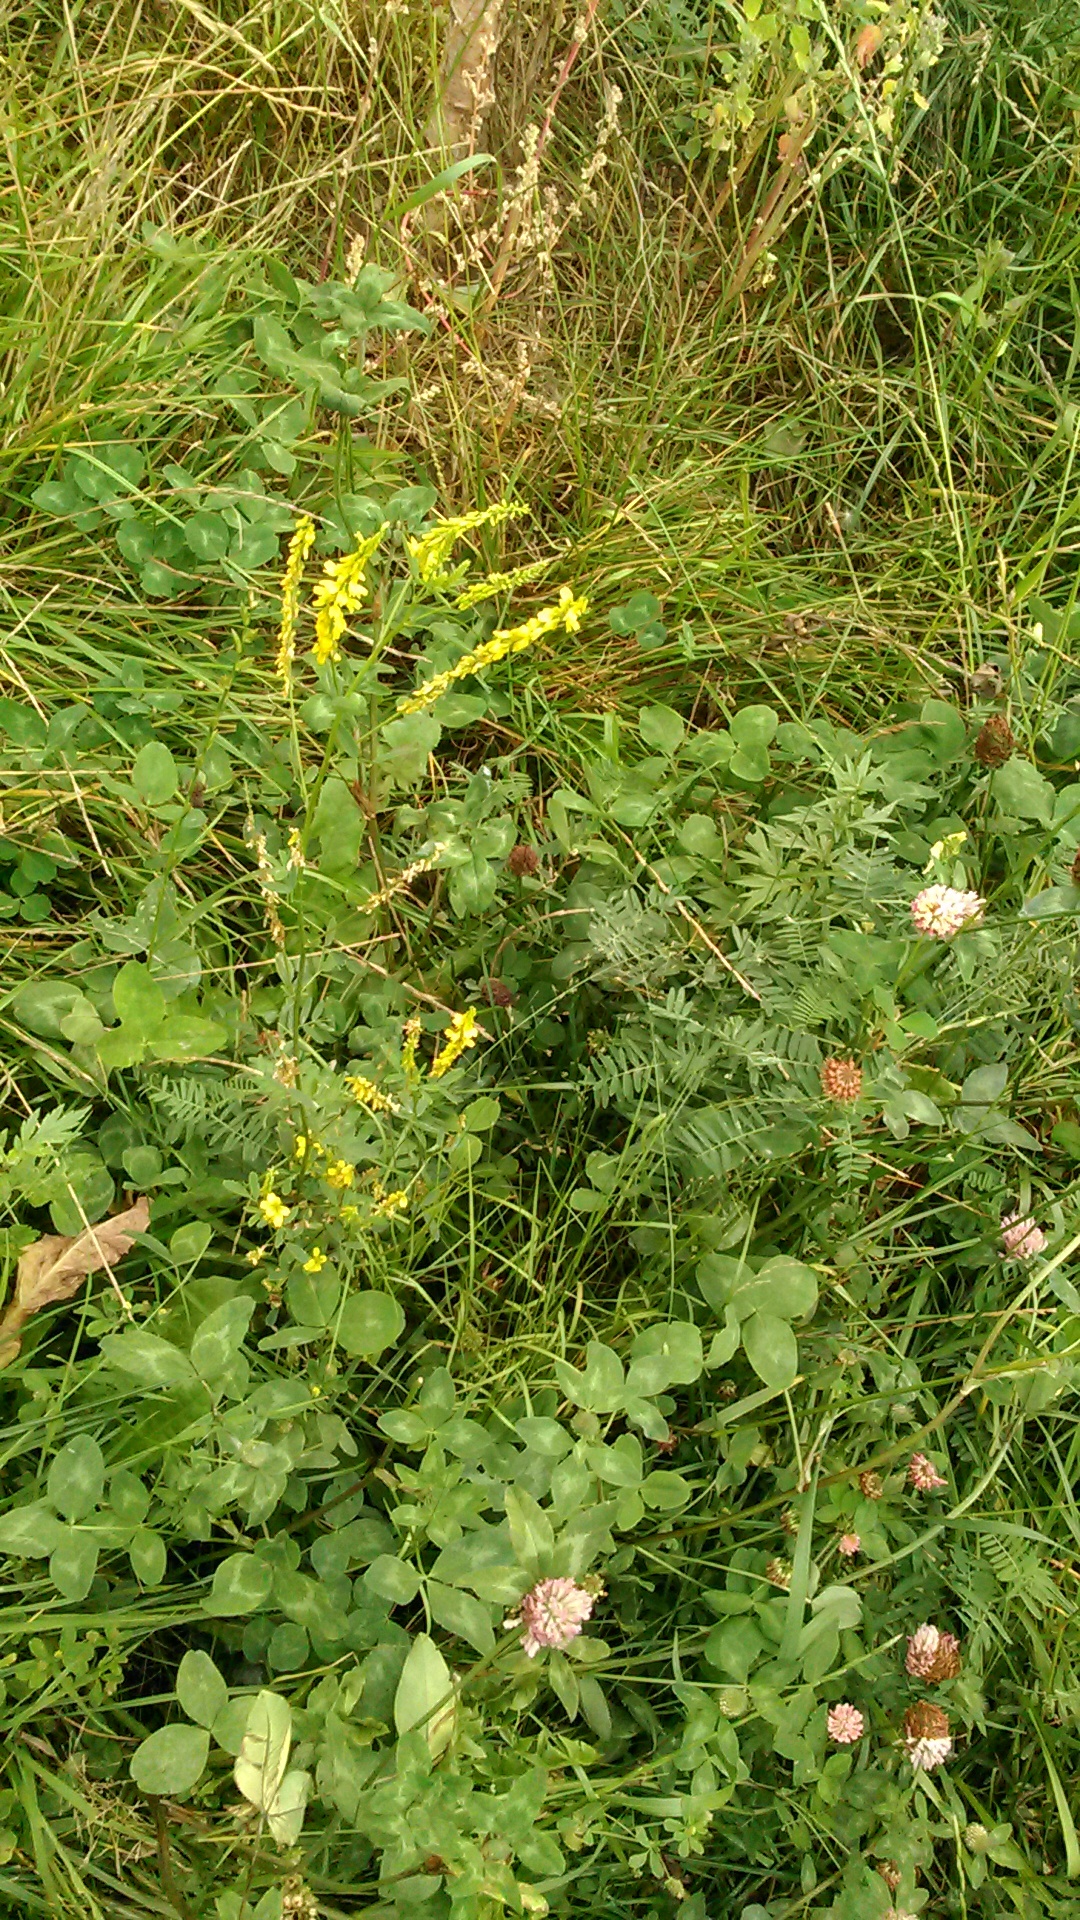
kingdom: Plantae
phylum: Tracheophyta
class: Magnoliopsida
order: Fabales
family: Fabaceae
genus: Melilotus
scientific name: Melilotus officinalis
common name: Sweetclover
